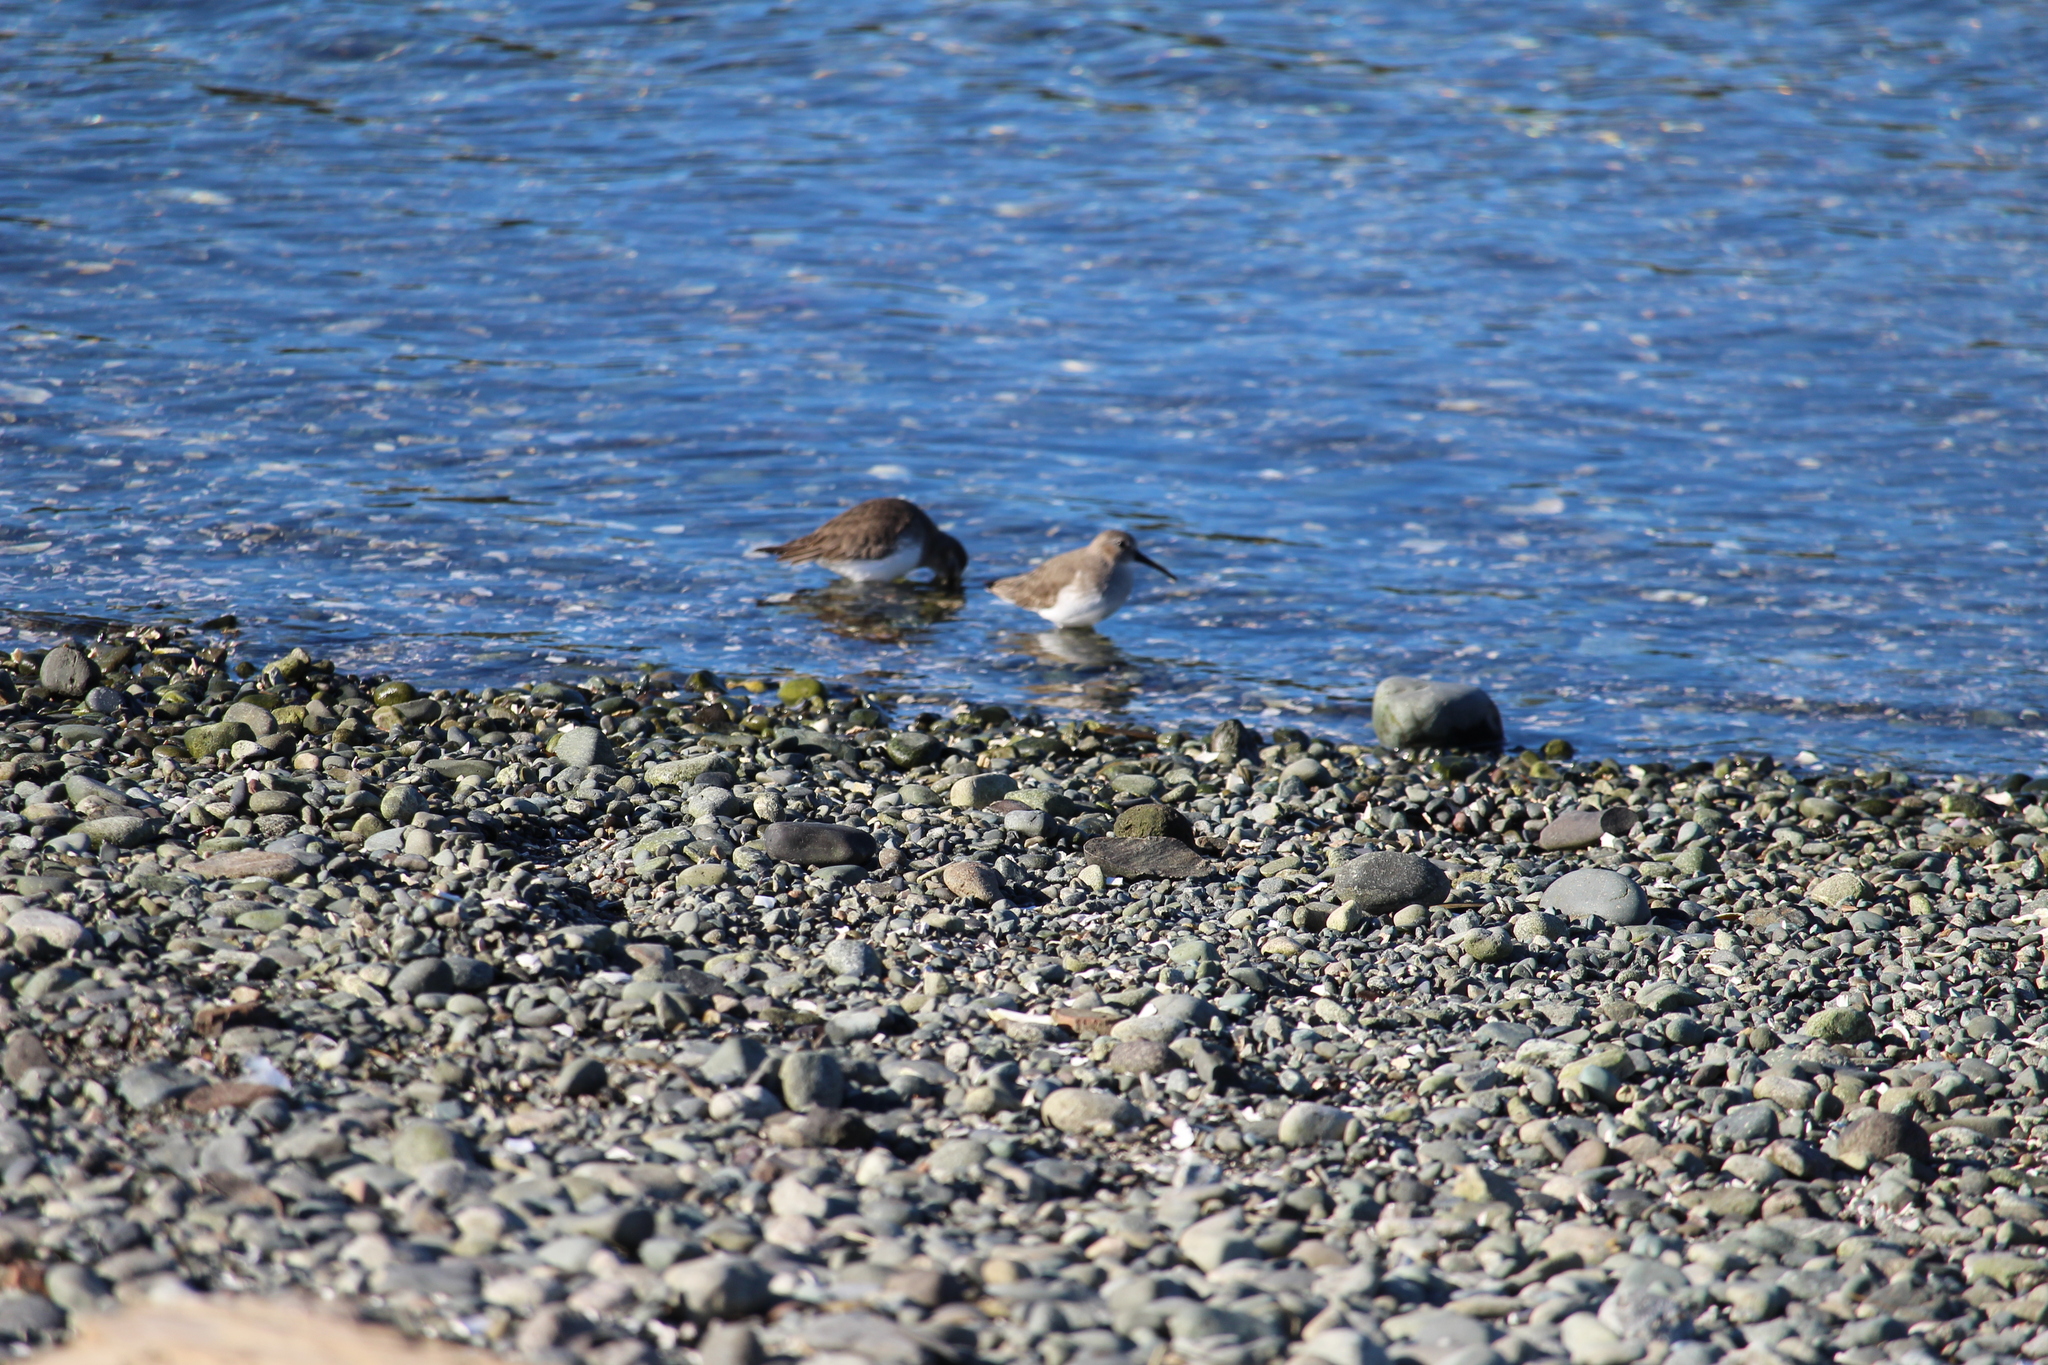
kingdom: Animalia
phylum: Chordata
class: Aves
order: Charadriiformes
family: Scolopacidae
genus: Calidris
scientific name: Calidris alpina
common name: Dunlin
